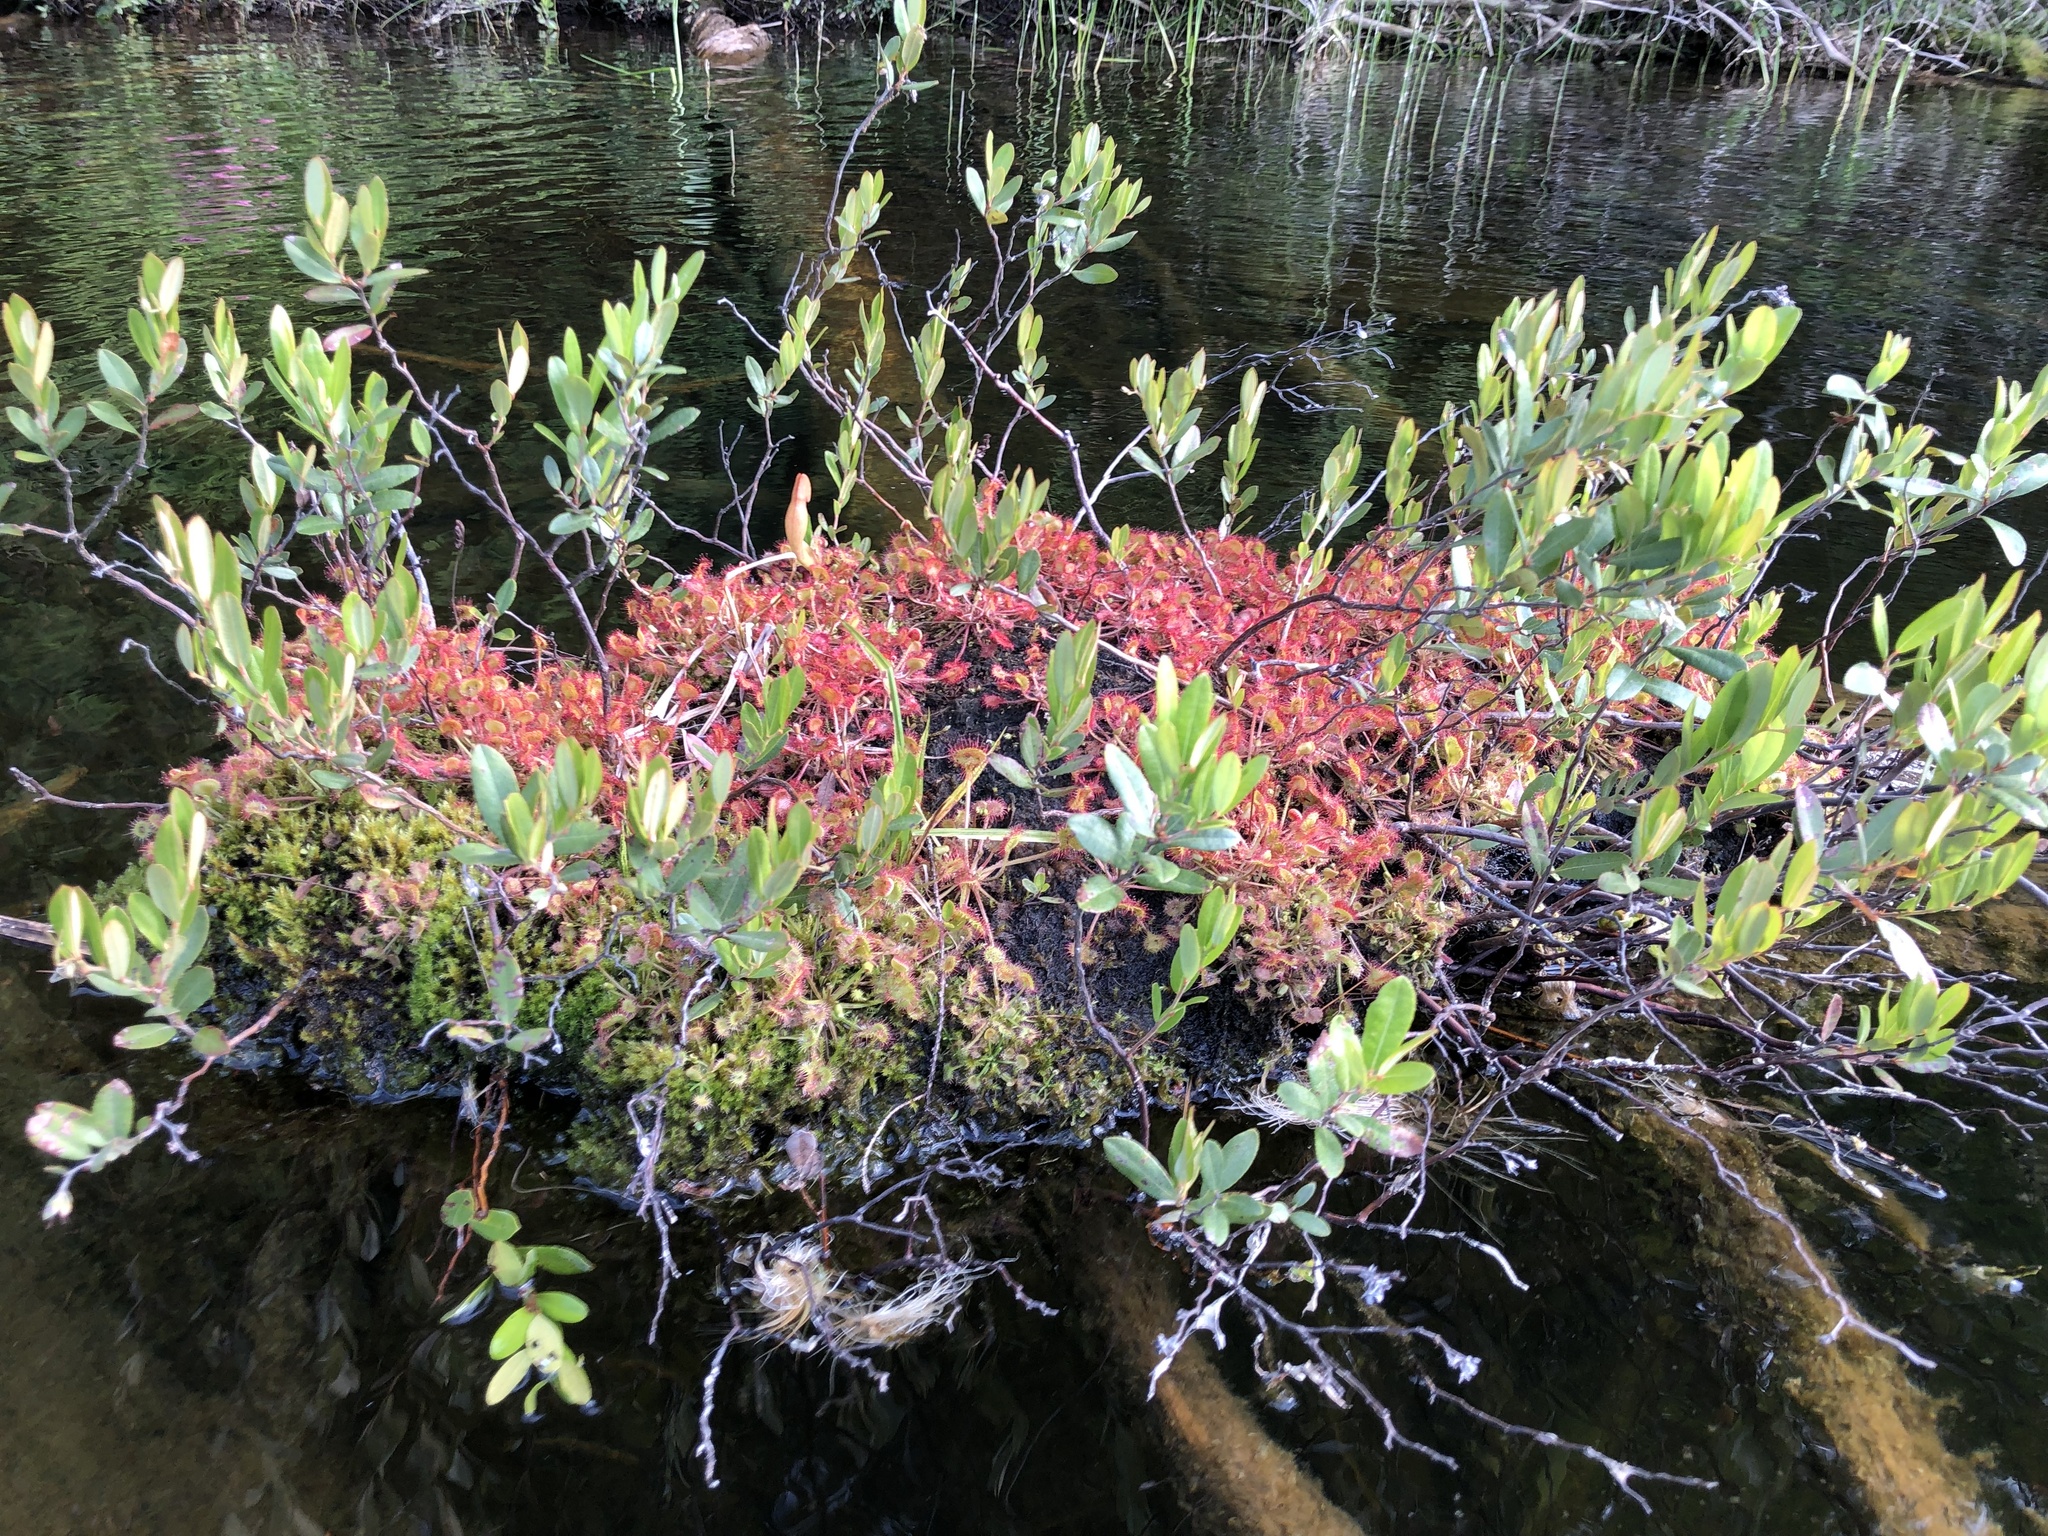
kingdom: Plantae
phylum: Tracheophyta
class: Magnoliopsida
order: Caryophyllales
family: Droseraceae
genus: Drosera
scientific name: Drosera rotundifolia
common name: Round-leaved sundew
